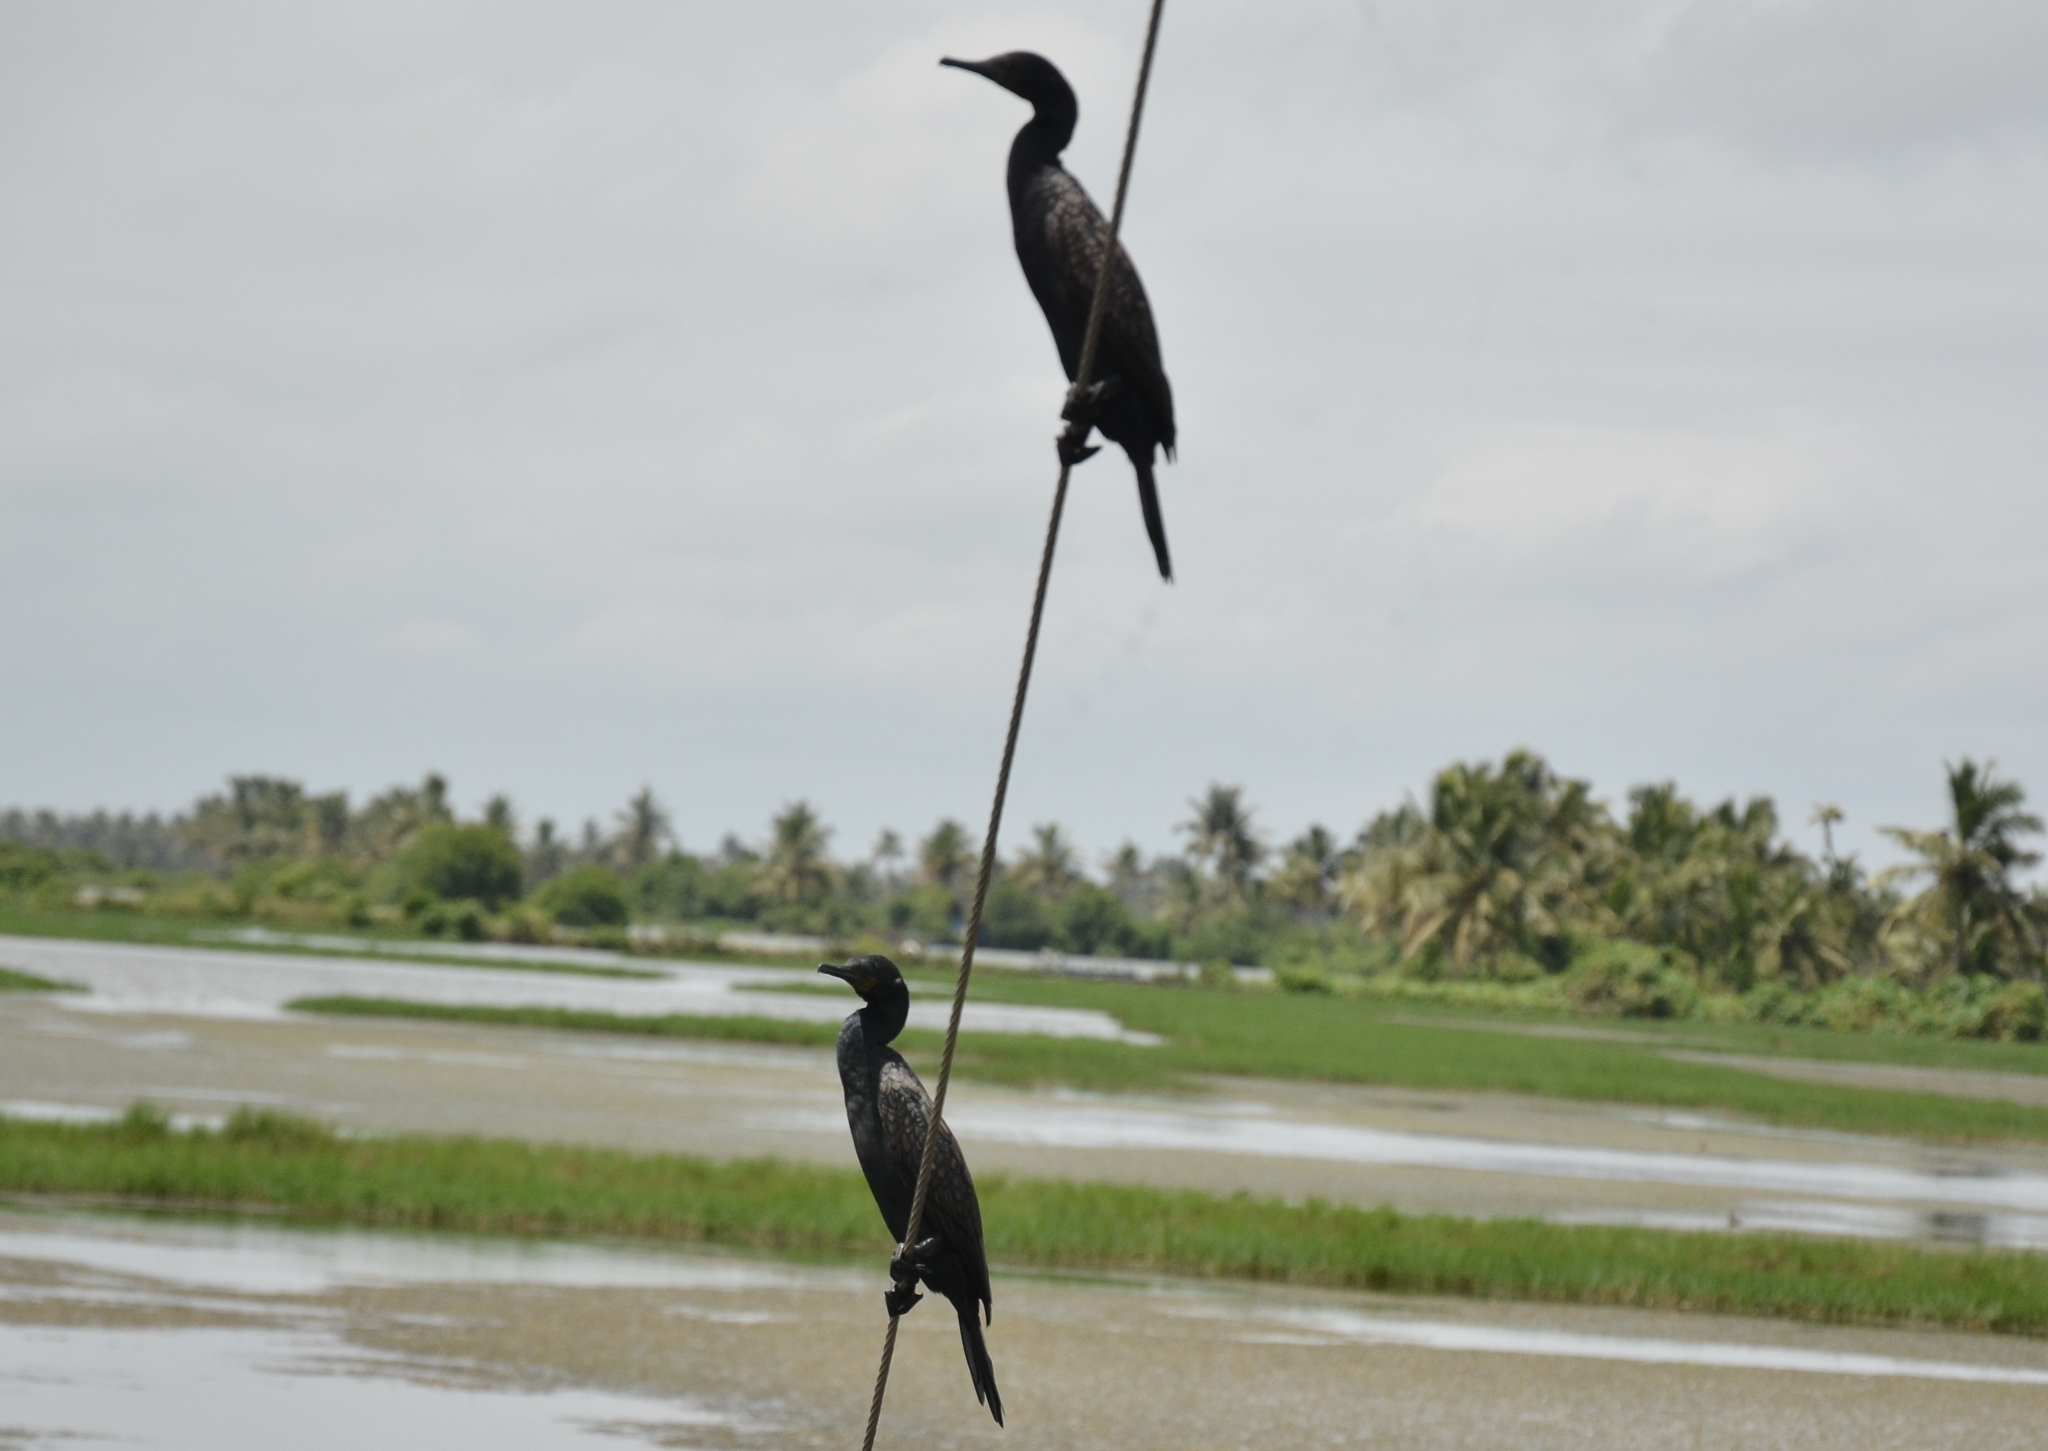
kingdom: Animalia
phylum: Chordata
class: Aves
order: Suliformes
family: Phalacrocoracidae
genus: Phalacrocorax
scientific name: Phalacrocorax fuscicollis
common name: Indian cormorant
